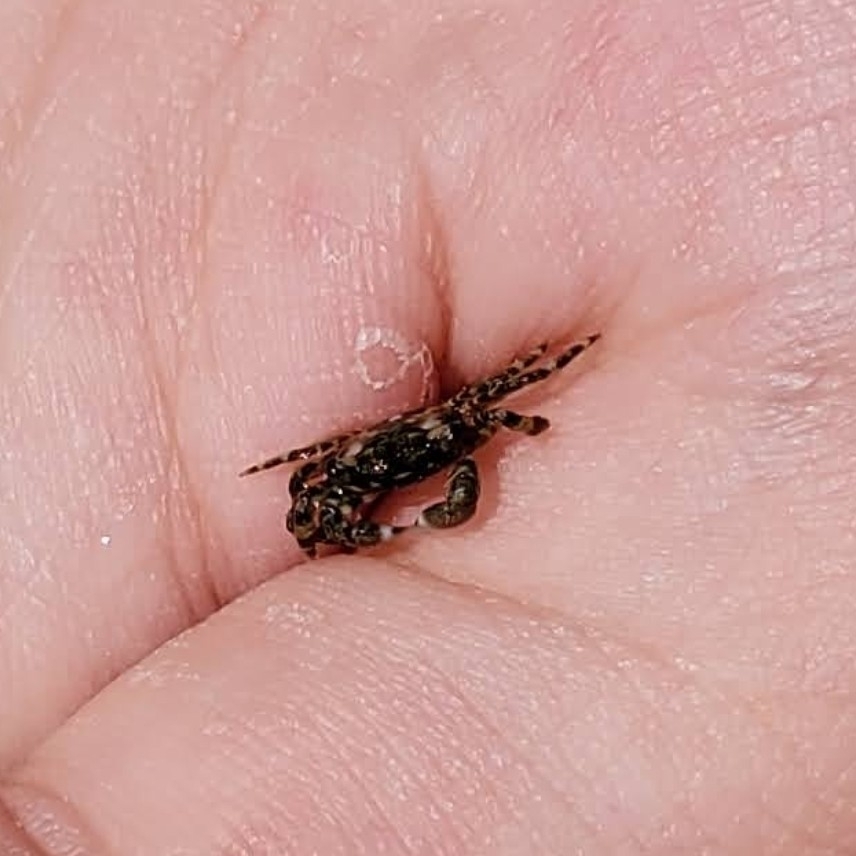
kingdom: Animalia
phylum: Arthropoda
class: Malacostraca
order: Decapoda
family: Grapsidae
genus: Pachygrapsus
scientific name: Pachygrapsus crassipes
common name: Striped shore crab
